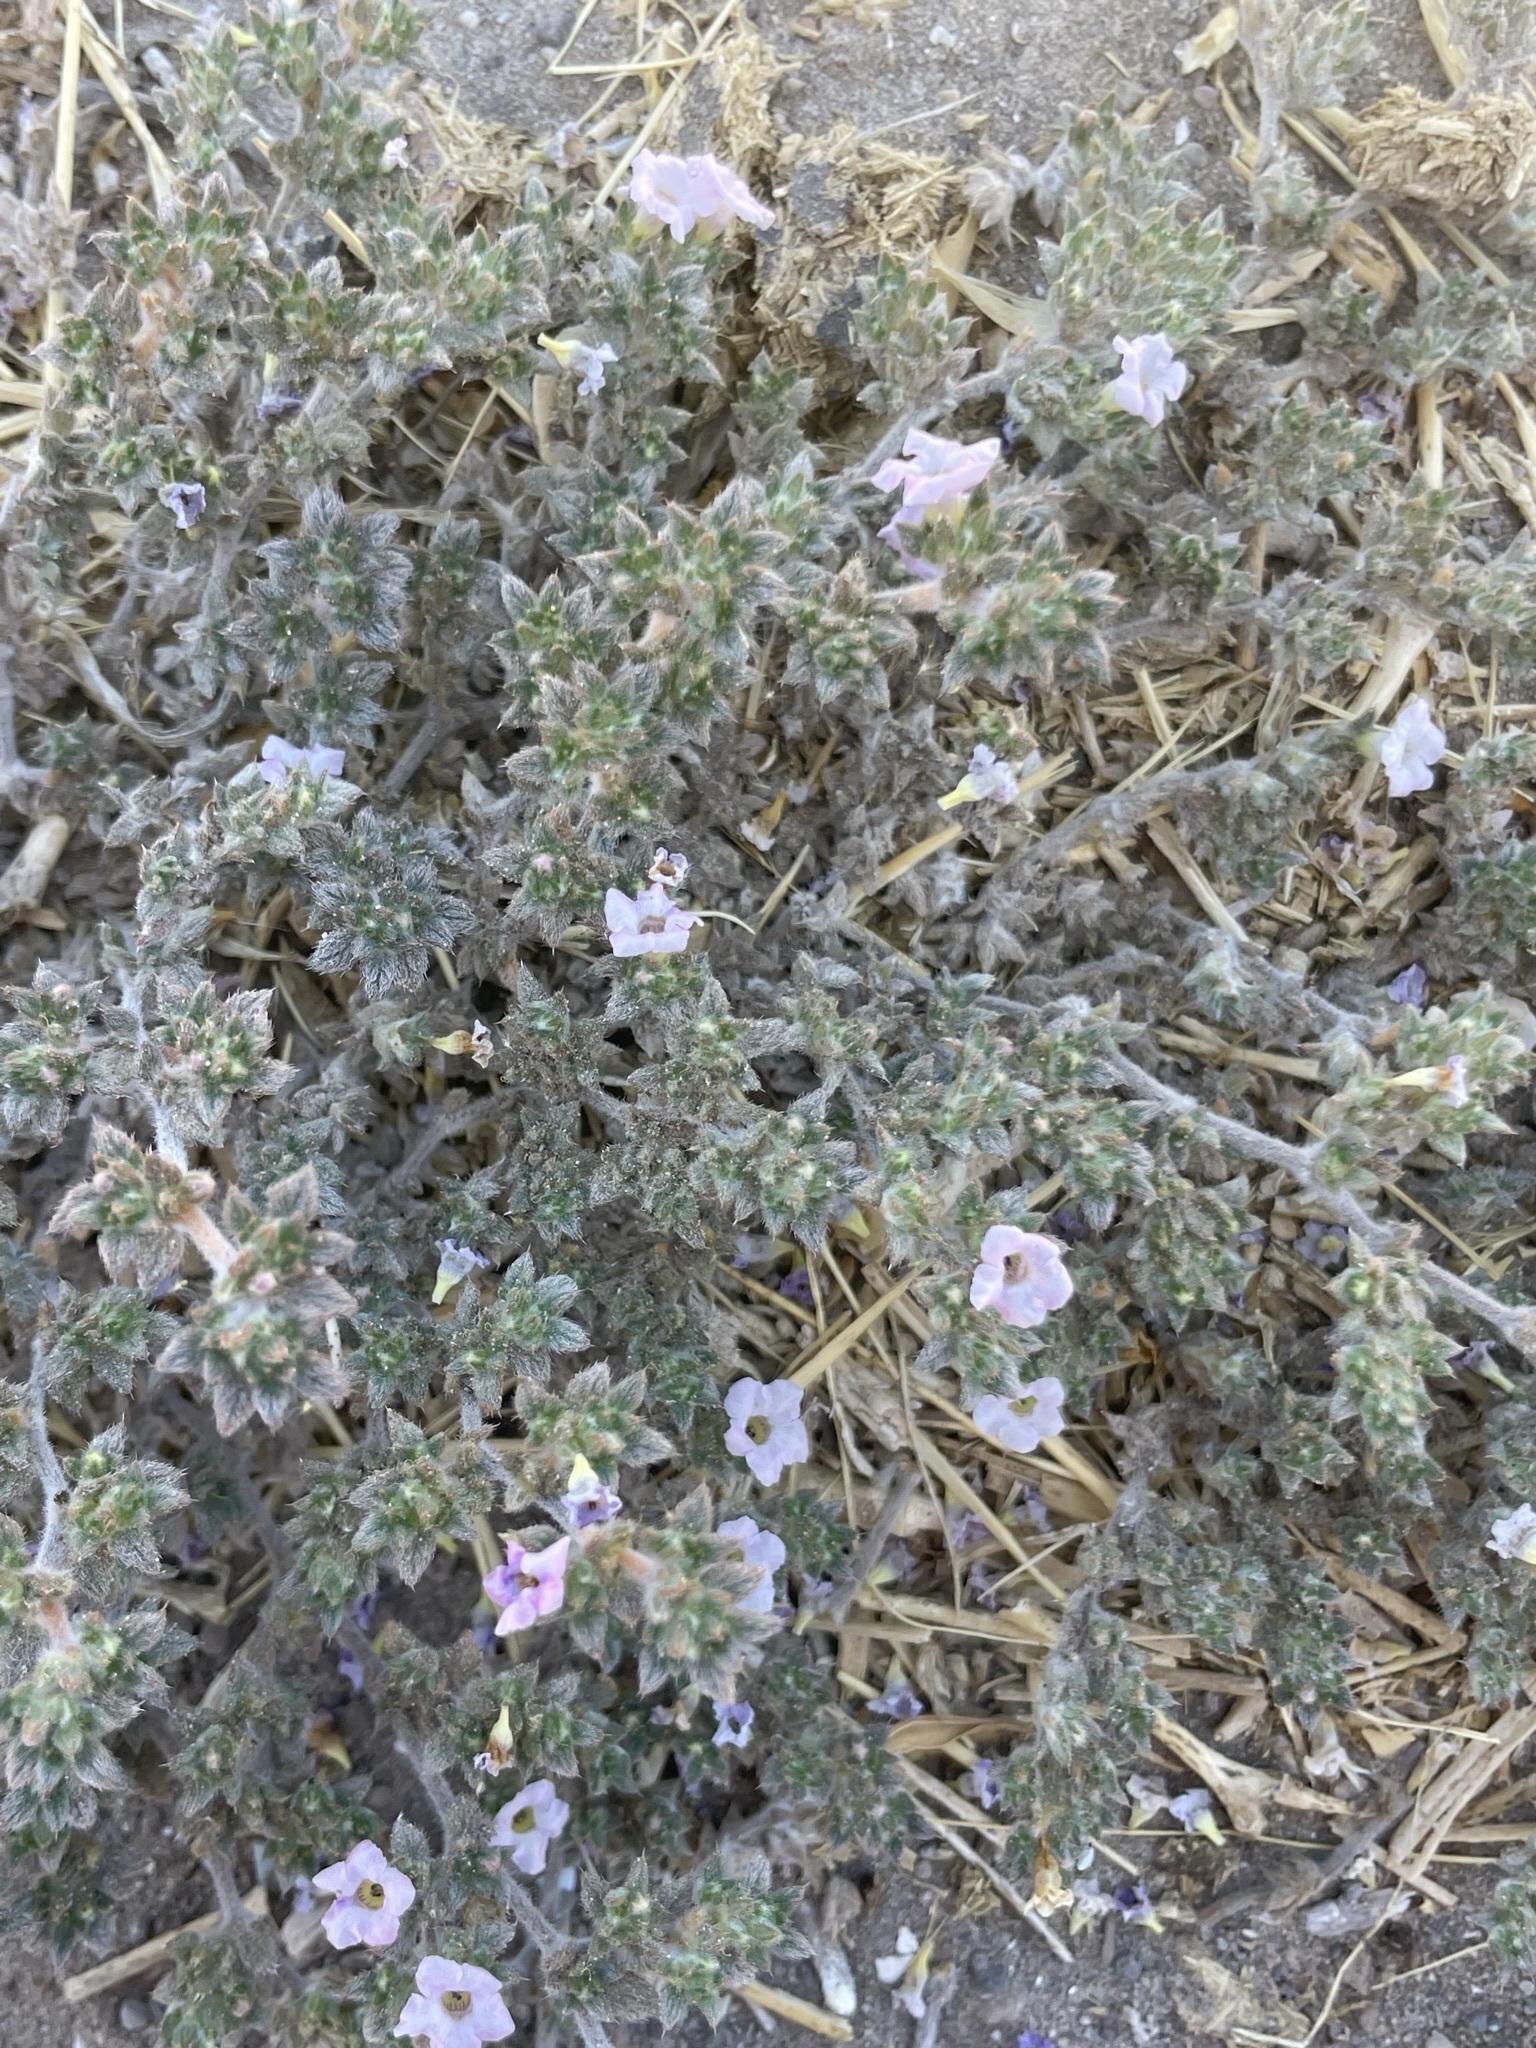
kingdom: Plantae
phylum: Tracheophyta
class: Magnoliopsida
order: Boraginales
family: Ehretiaceae
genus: Tiquilia
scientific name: Tiquilia cuspidata
